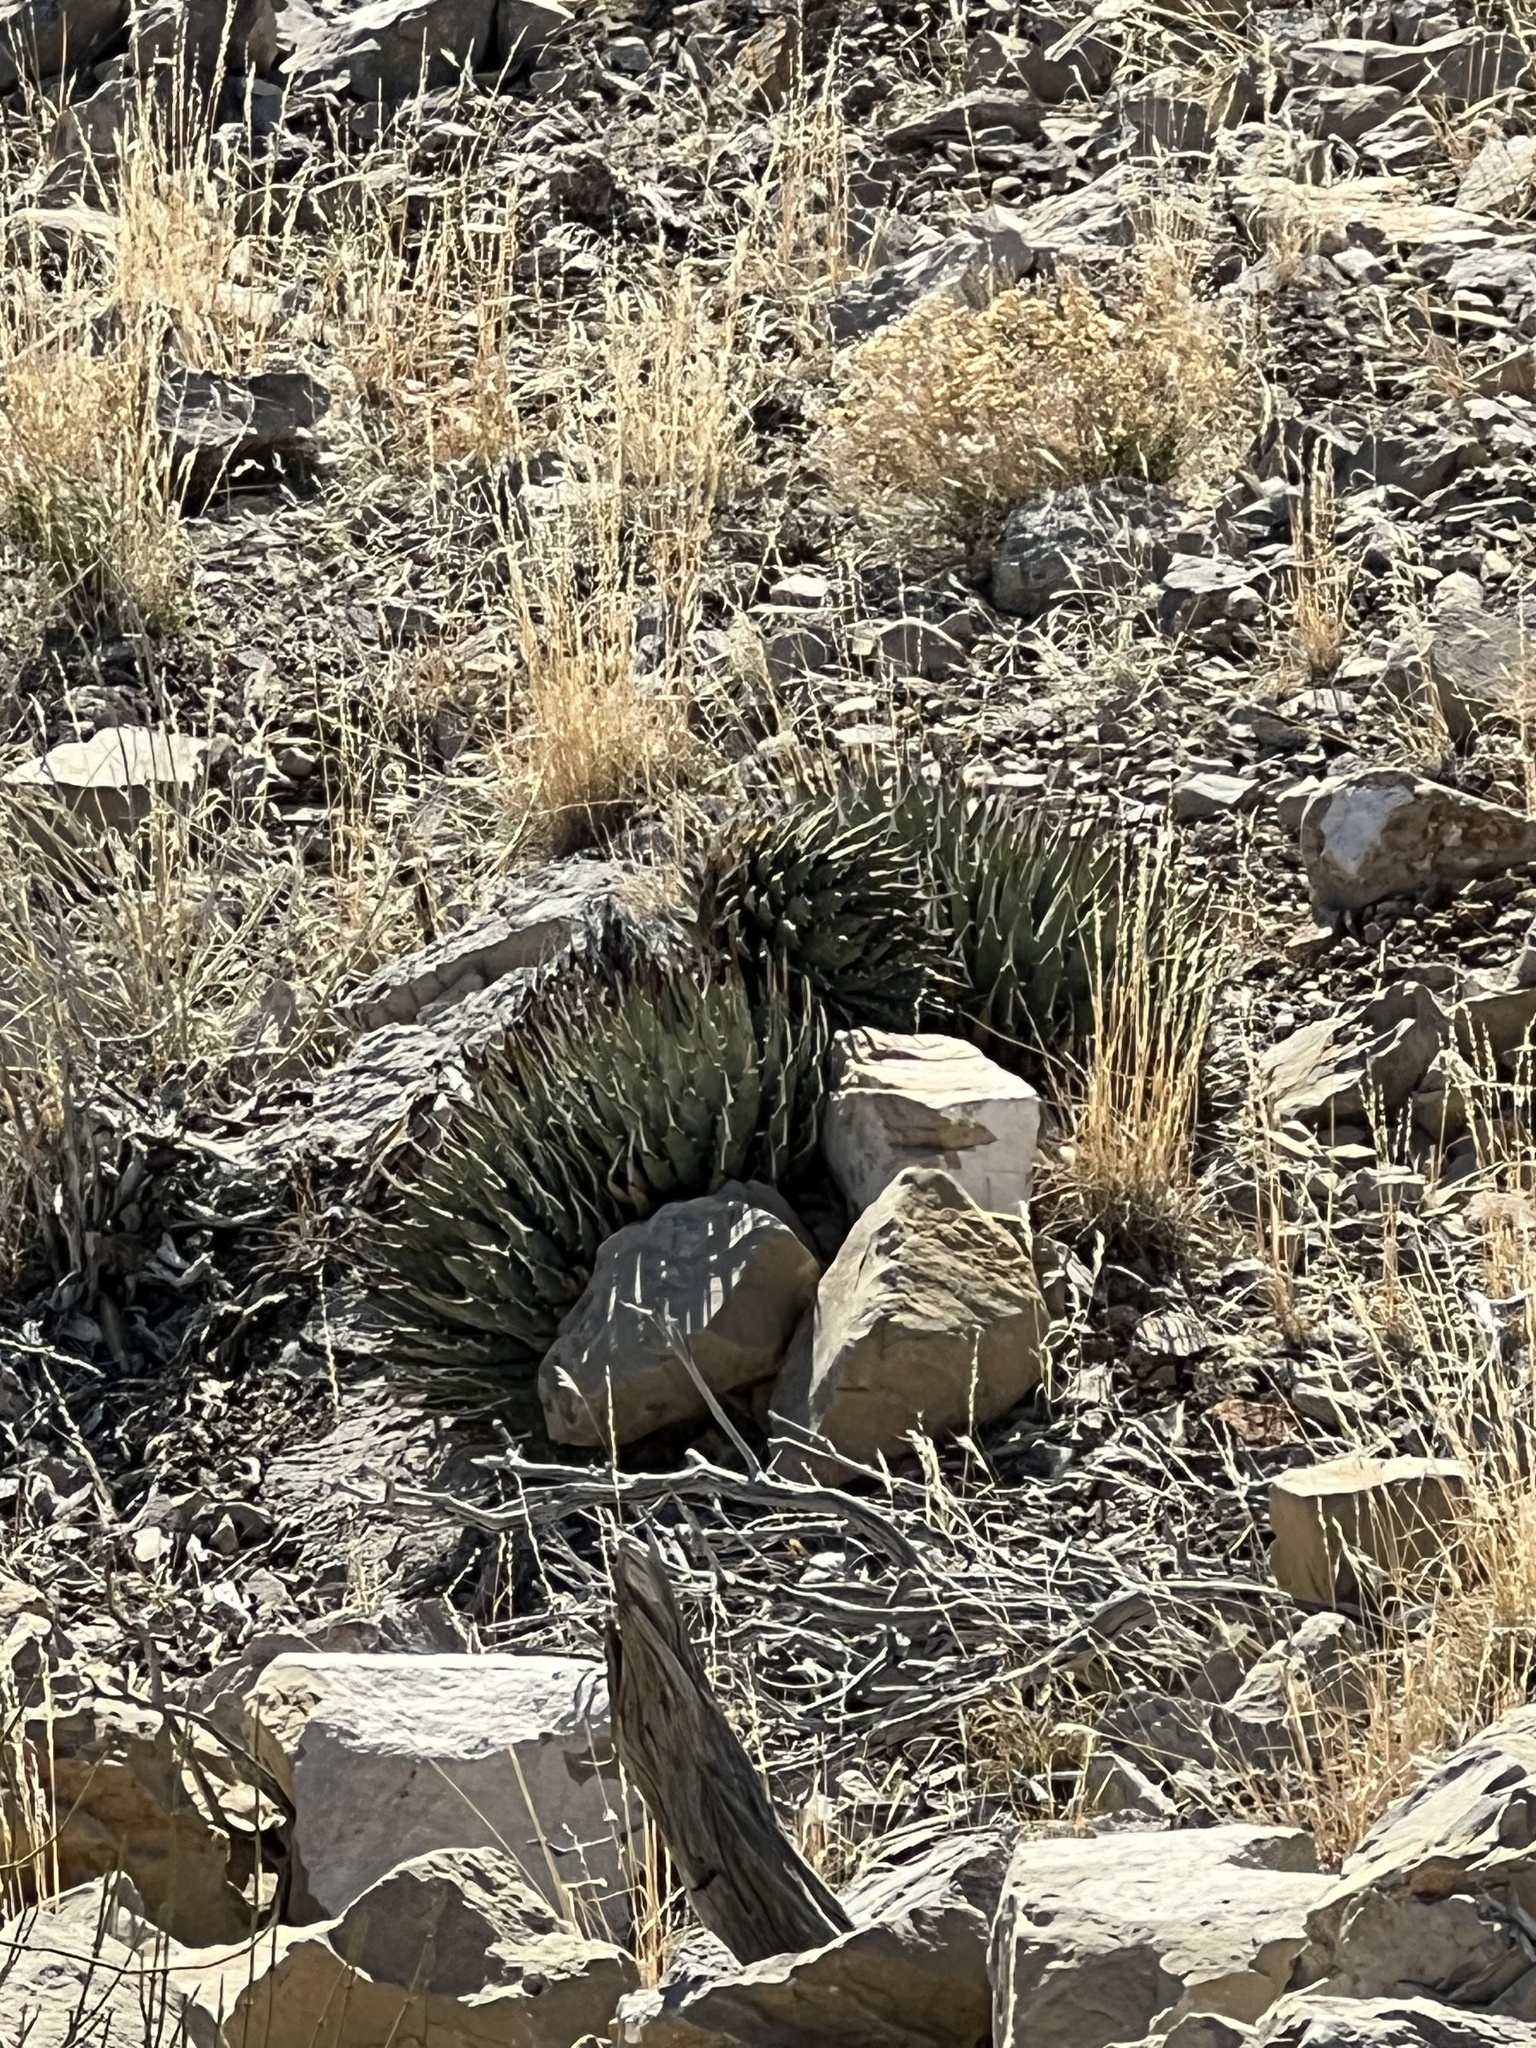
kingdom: Plantae
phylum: Tracheophyta
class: Liliopsida
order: Asparagales
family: Asparagaceae
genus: Agave
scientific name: Agave utahensis
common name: Utah agave
